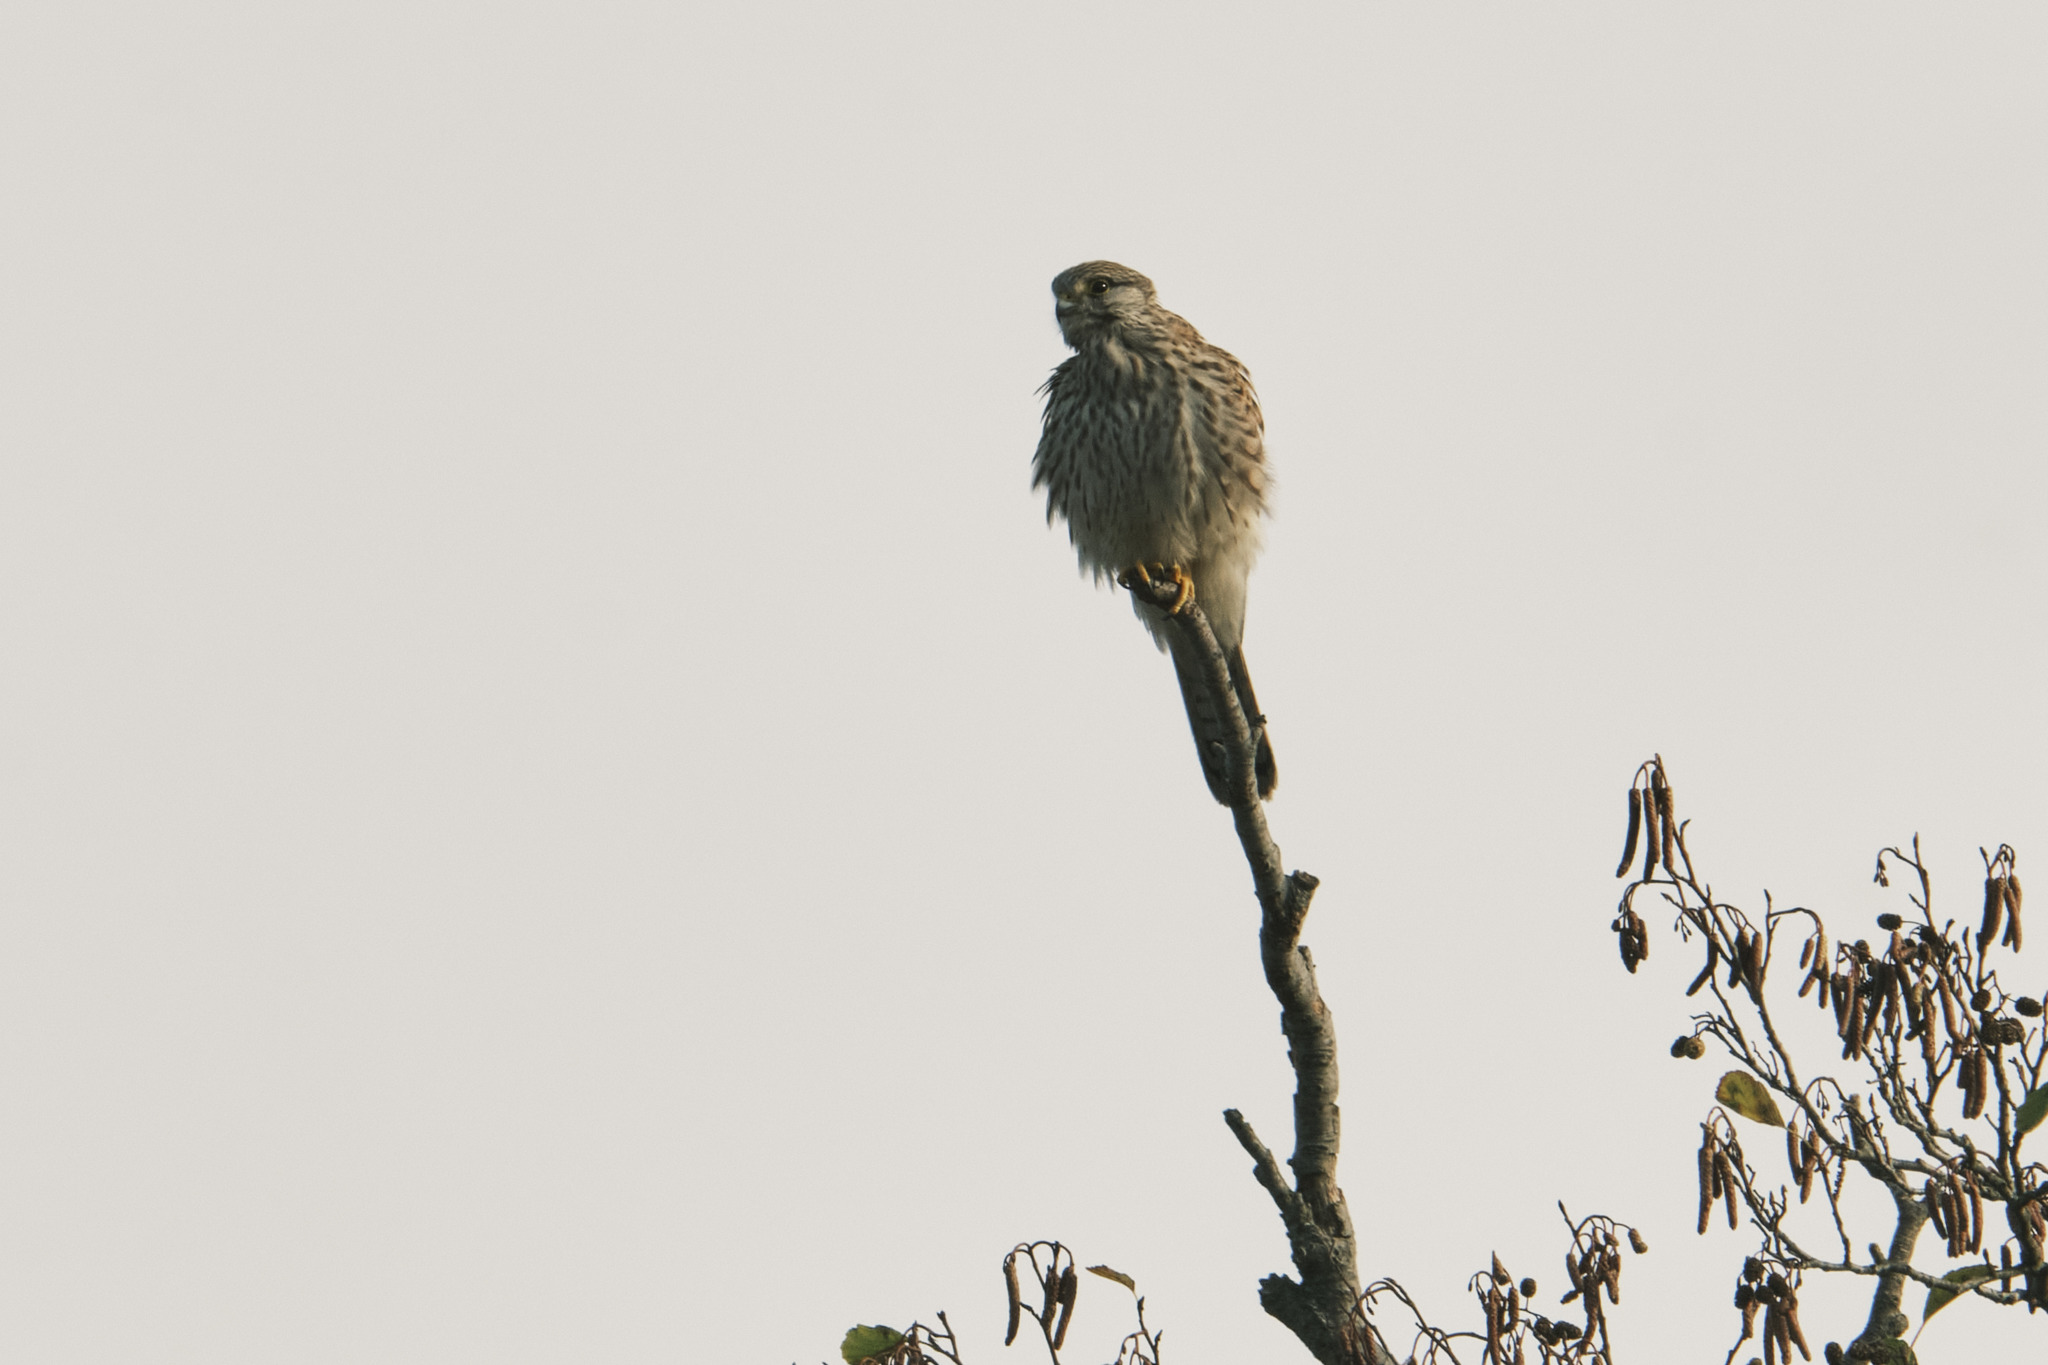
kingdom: Animalia
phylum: Chordata
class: Aves
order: Falconiformes
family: Falconidae
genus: Falco
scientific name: Falco tinnunculus
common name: Common kestrel
